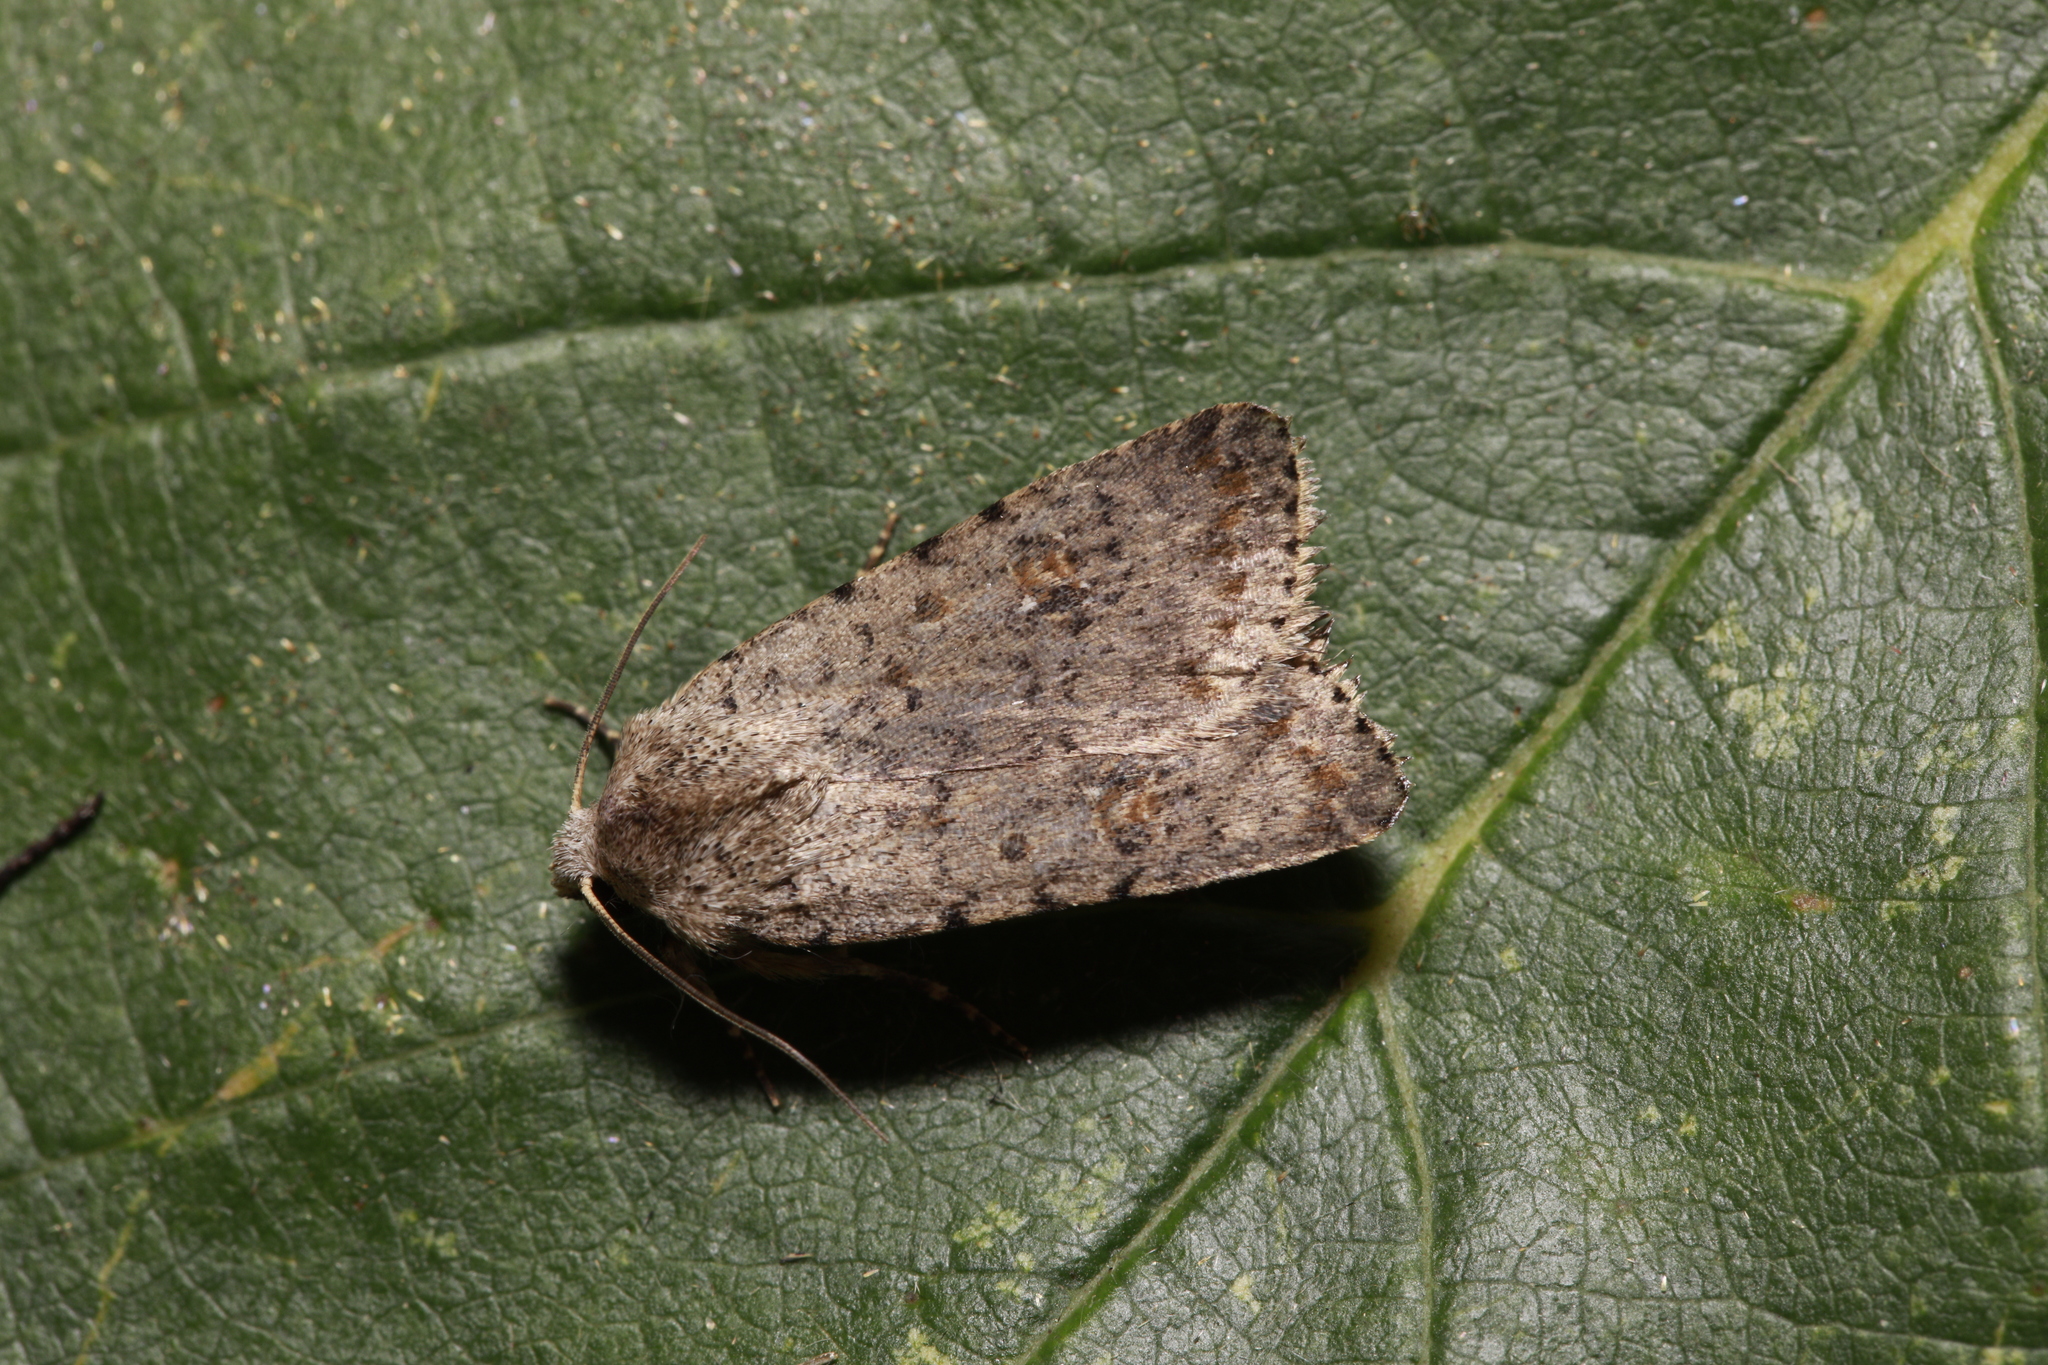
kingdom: Animalia
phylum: Arthropoda
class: Insecta
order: Lepidoptera
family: Noctuidae
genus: Caradrina
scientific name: Caradrina clavipalpis
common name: Pale mottled willow
